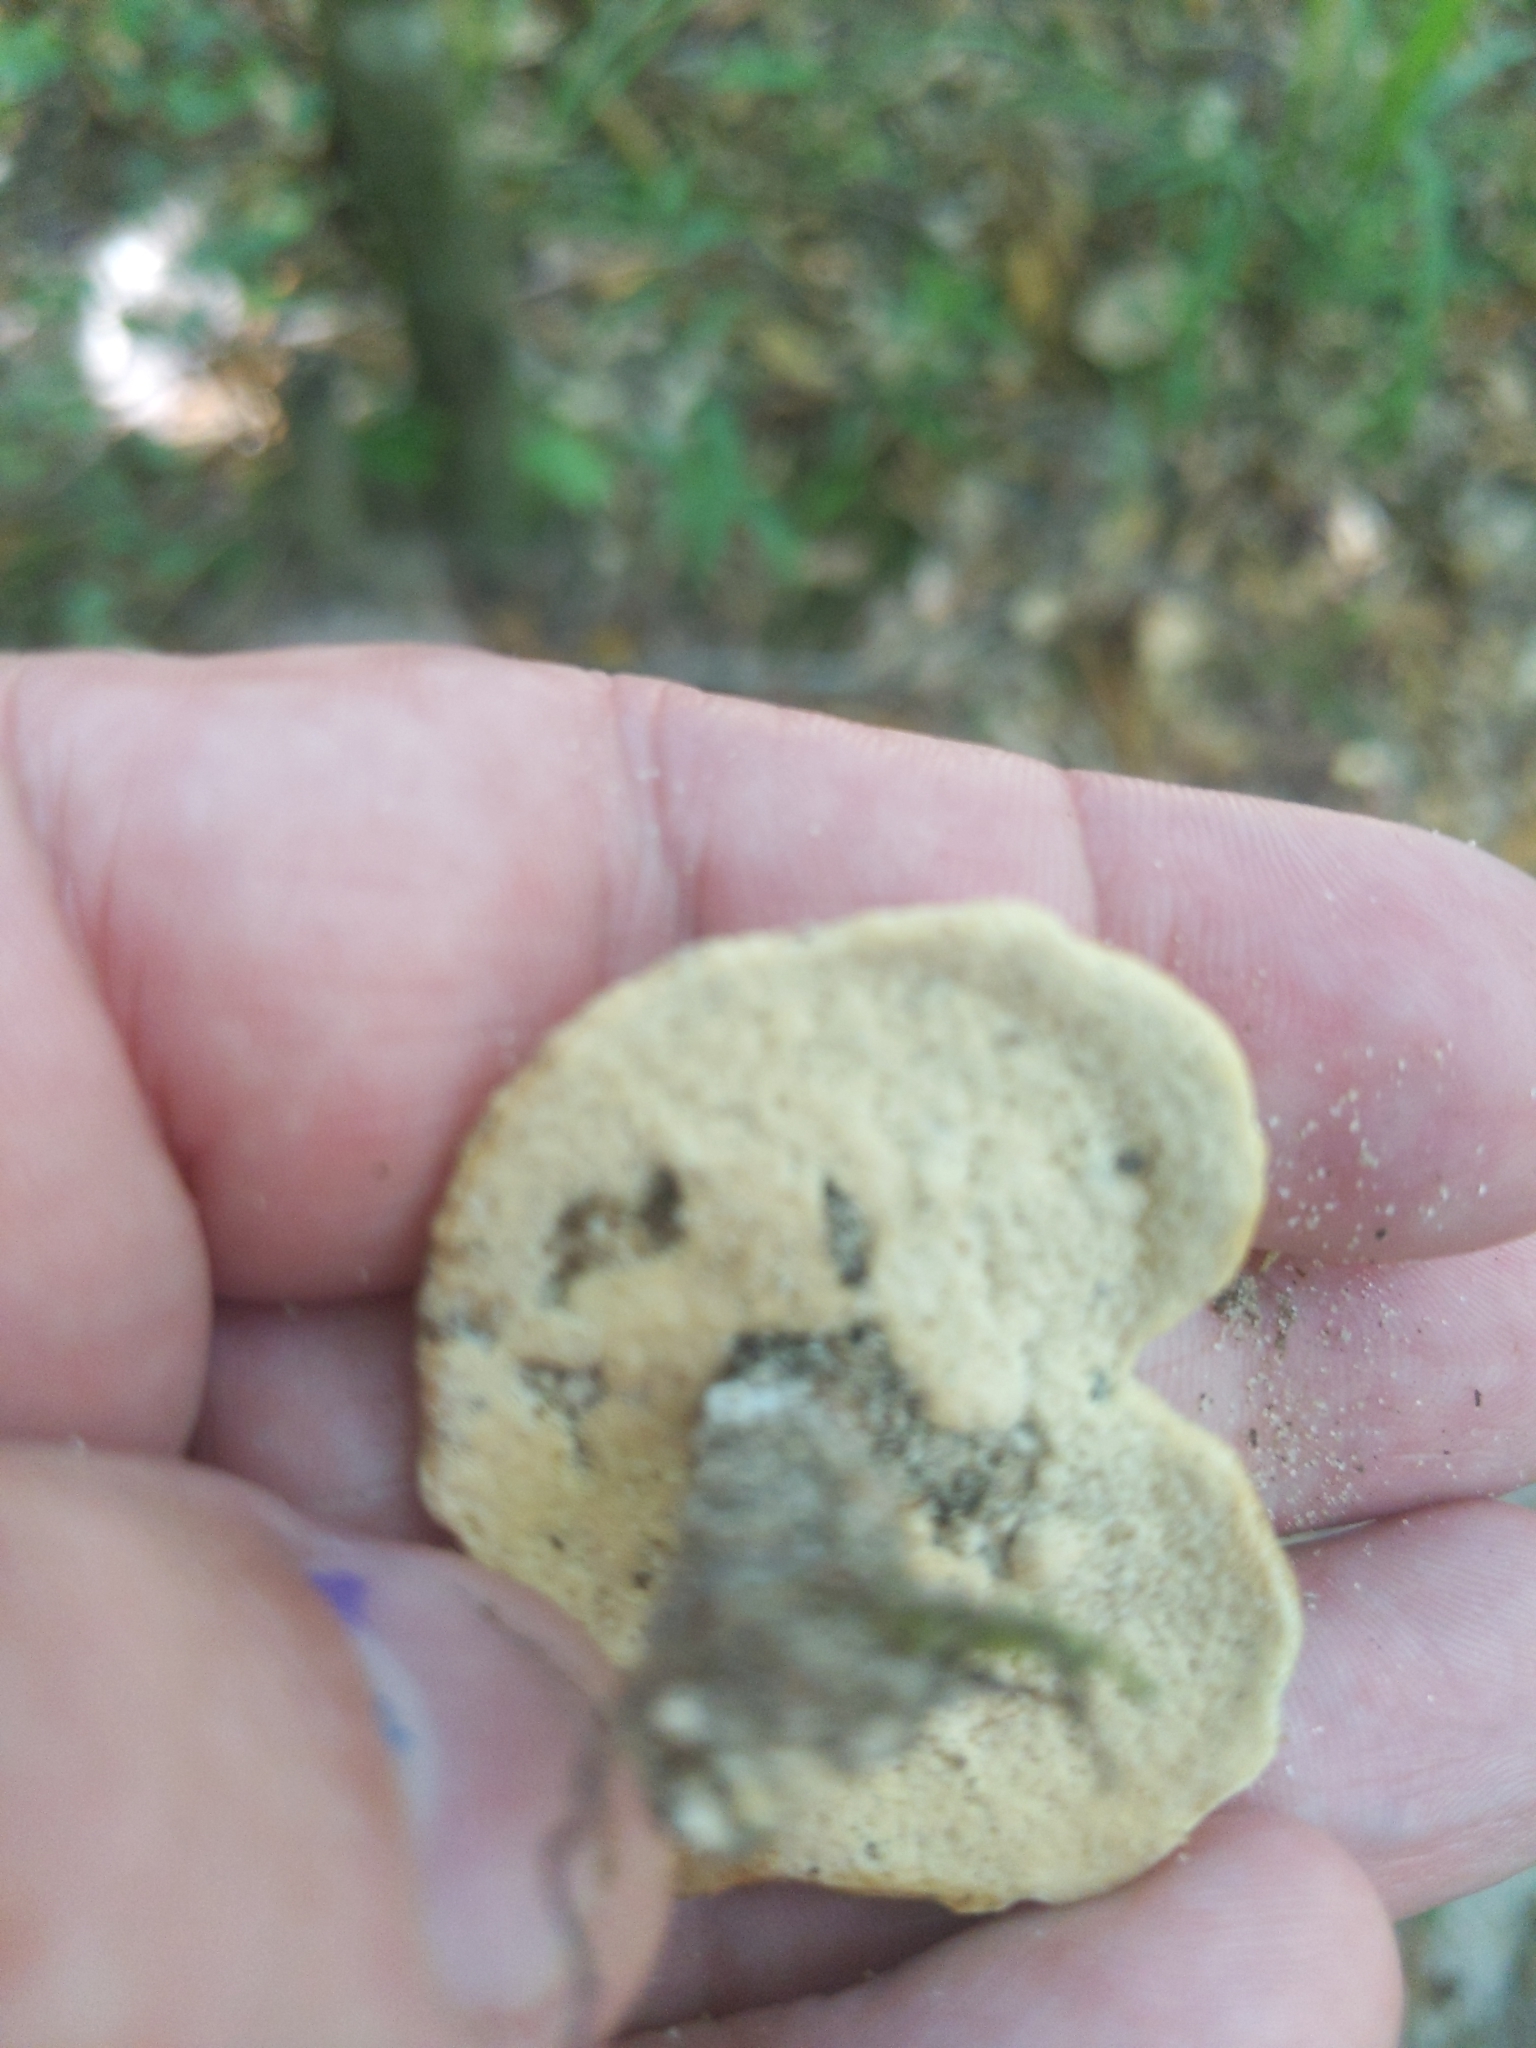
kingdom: Fungi
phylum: Basidiomycota
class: Agaricomycetes
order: Polyporales
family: Polyporaceae
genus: Microporellus
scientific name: Microporellus dealbatus
